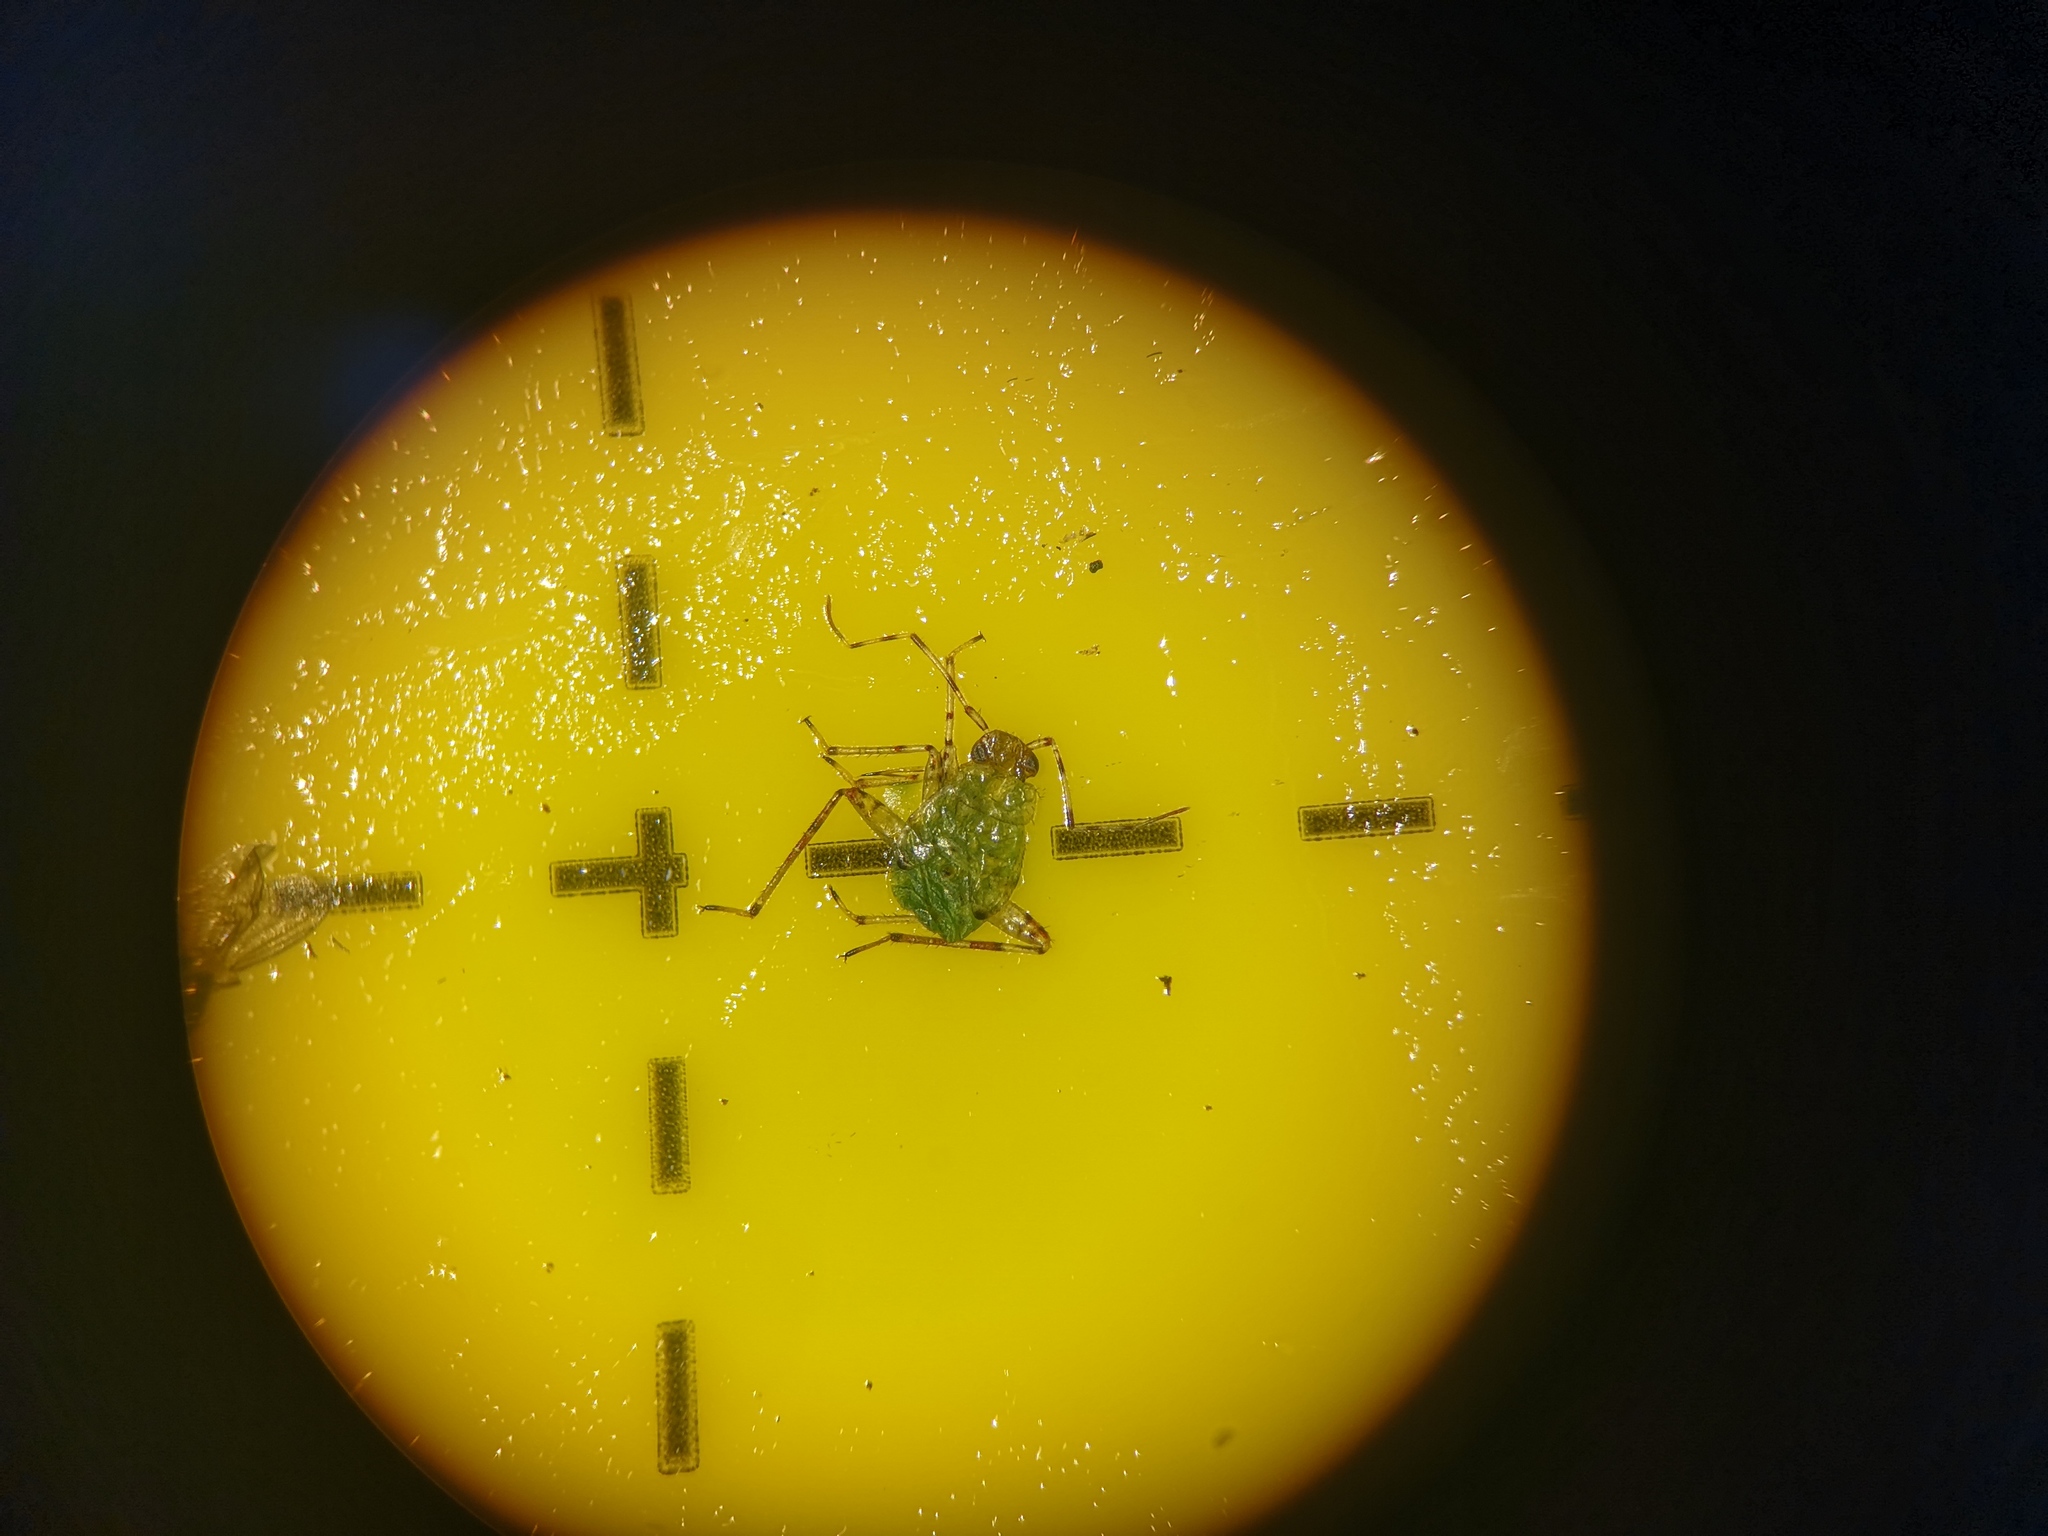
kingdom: Animalia
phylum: Arthropoda
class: Insecta
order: Hemiptera
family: Miridae
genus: Liocoris
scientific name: Liocoris tripustulatus
